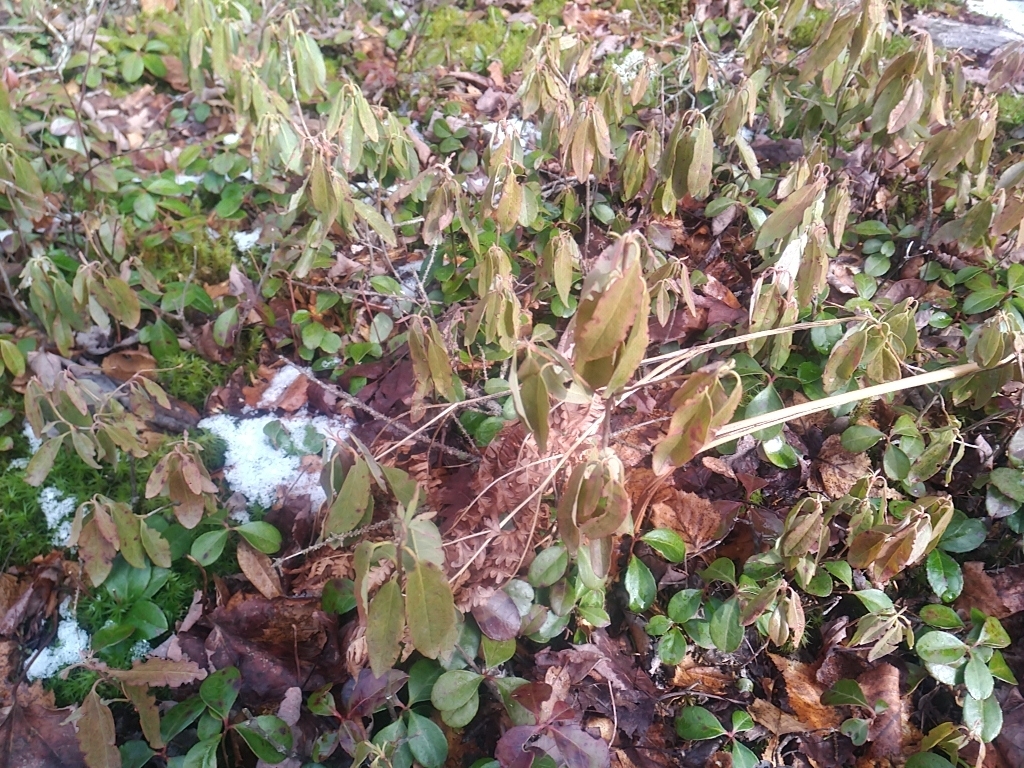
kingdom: Plantae
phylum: Tracheophyta
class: Magnoliopsida
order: Ericales
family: Ericaceae
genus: Kalmia
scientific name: Kalmia angustifolia
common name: Sheep-laurel
